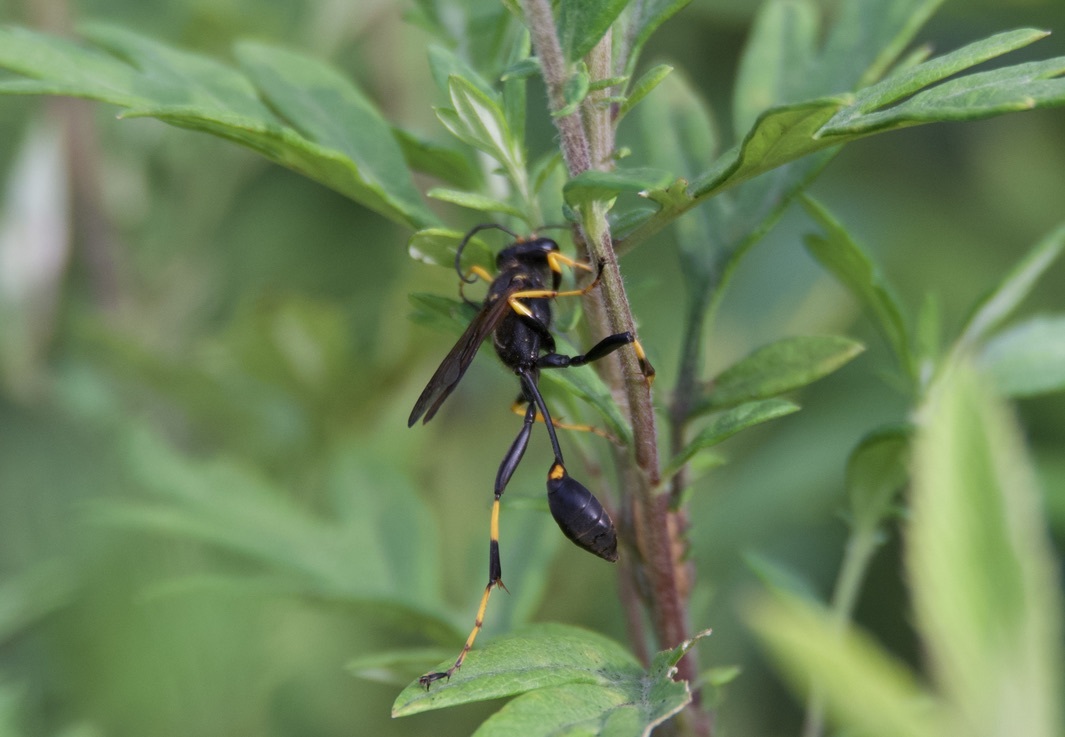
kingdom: Animalia
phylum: Arthropoda
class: Insecta
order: Hymenoptera
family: Sphecidae
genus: Sceliphron
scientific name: Sceliphron caementarium
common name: Mud dauber
